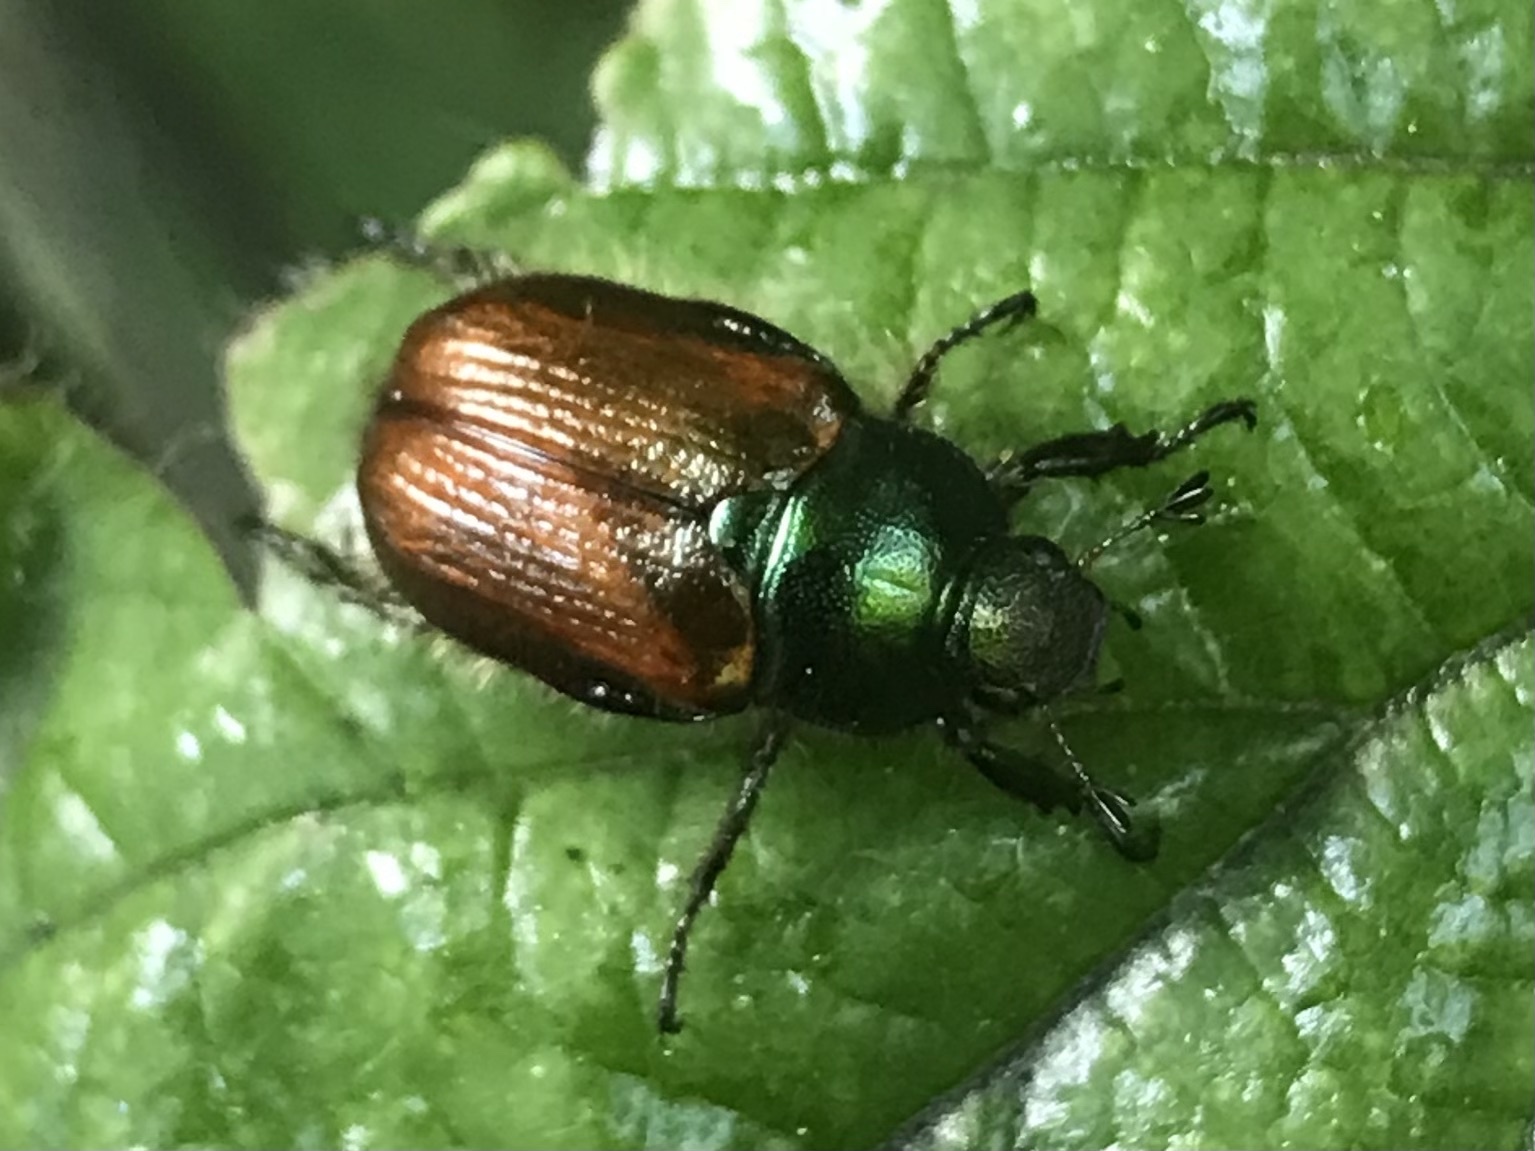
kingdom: Animalia
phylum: Arthropoda
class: Insecta
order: Coleoptera
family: Scarabaeidae
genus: Phyllopertha
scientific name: Phyllopertha horticola
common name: Garden chafer
